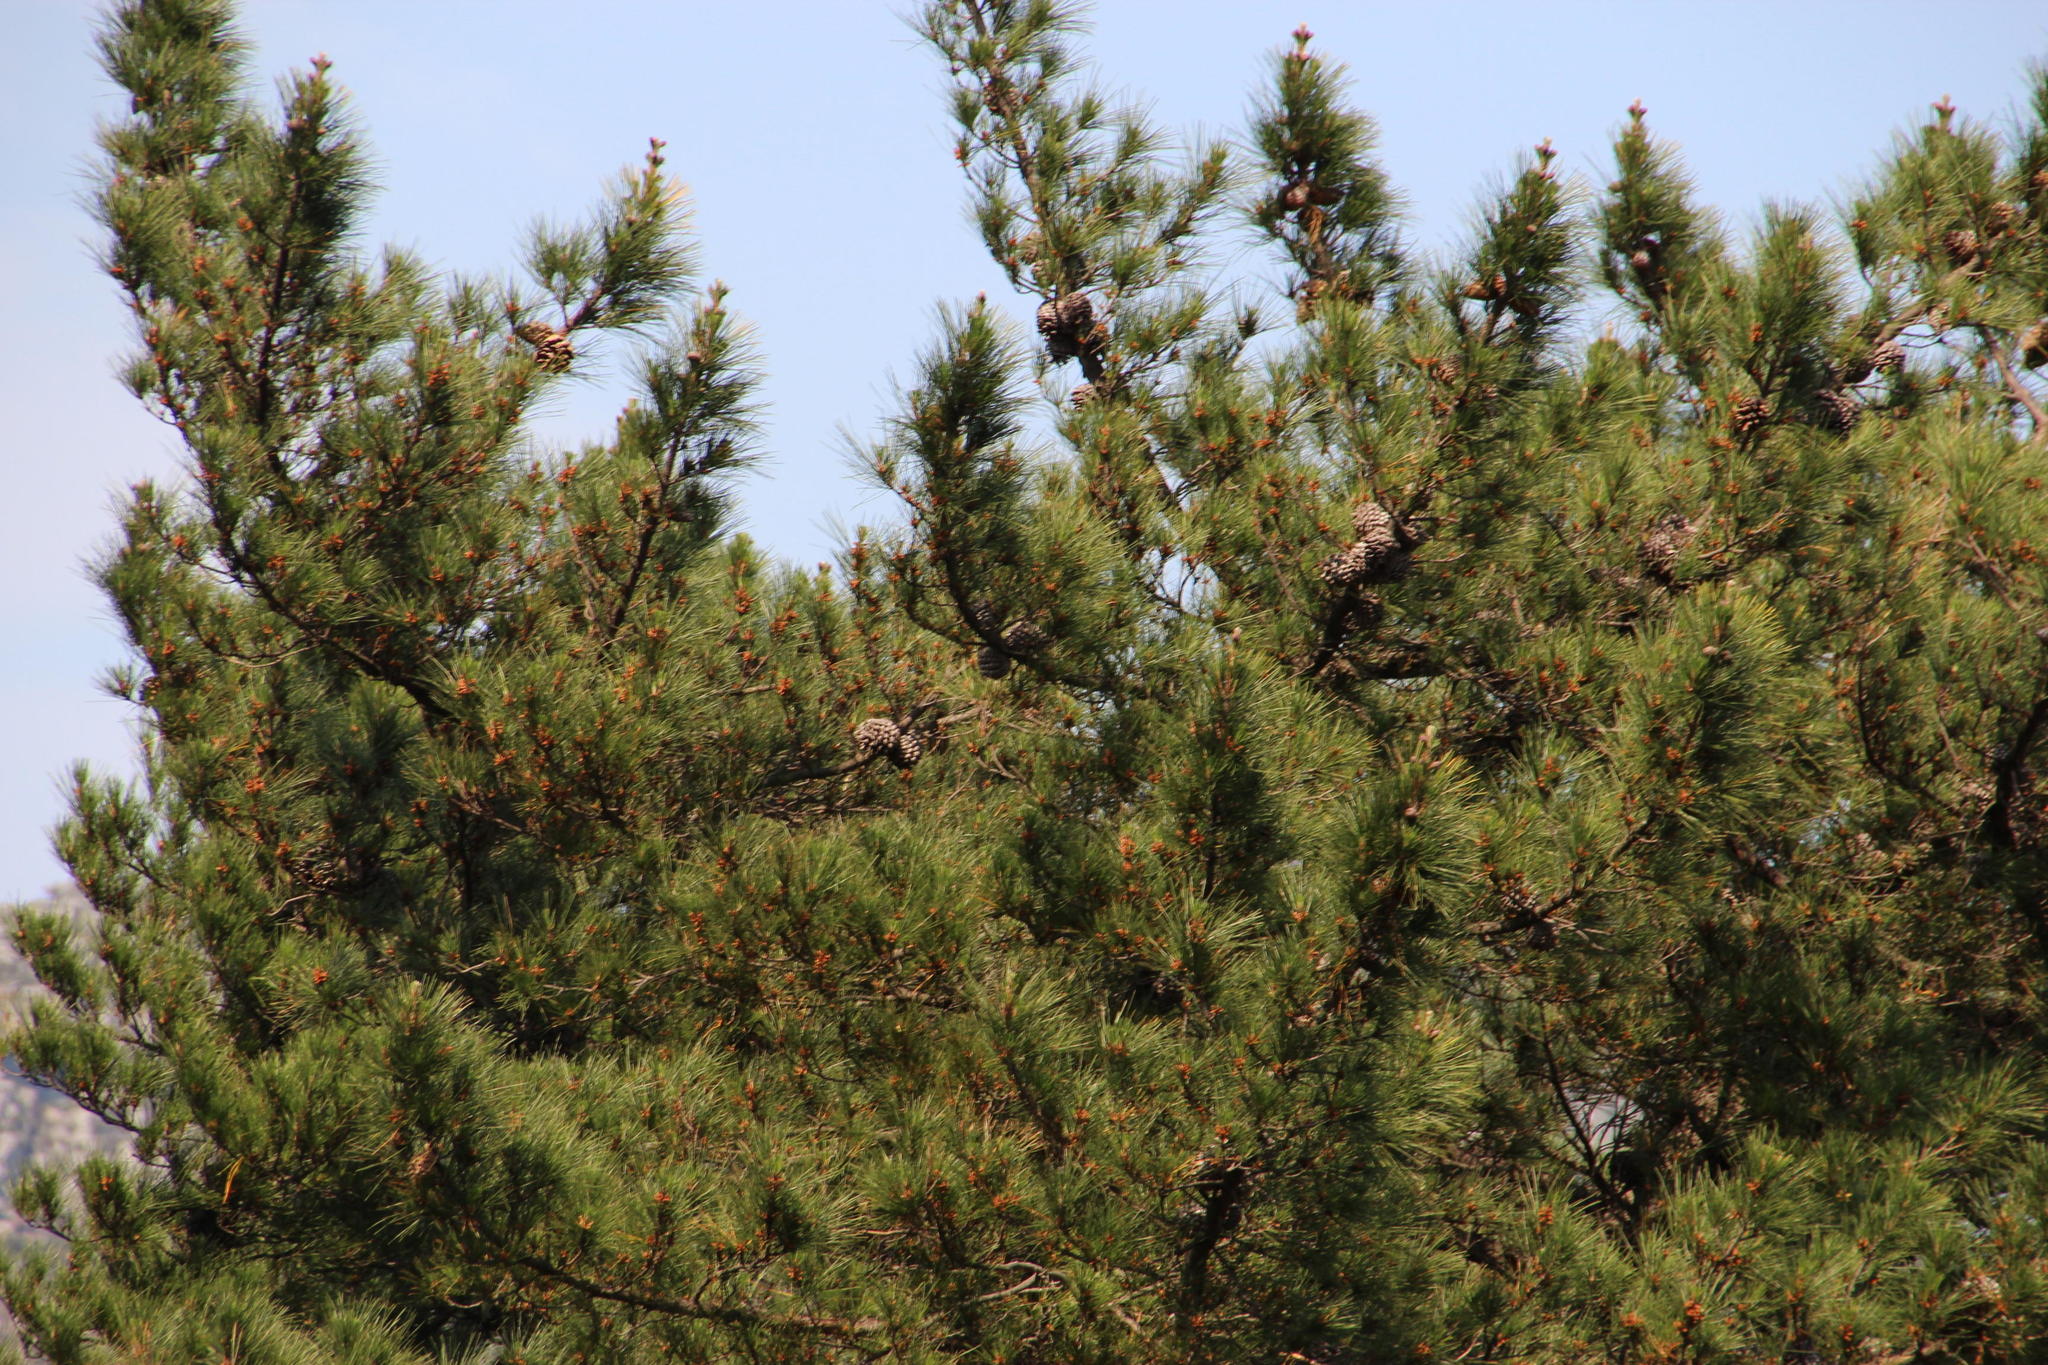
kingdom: Plantae
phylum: Tracheophyta
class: Pinopsida
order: Pinales
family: Pinaceae
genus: Pinus
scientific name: Pinus radiata
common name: Monterey pine
